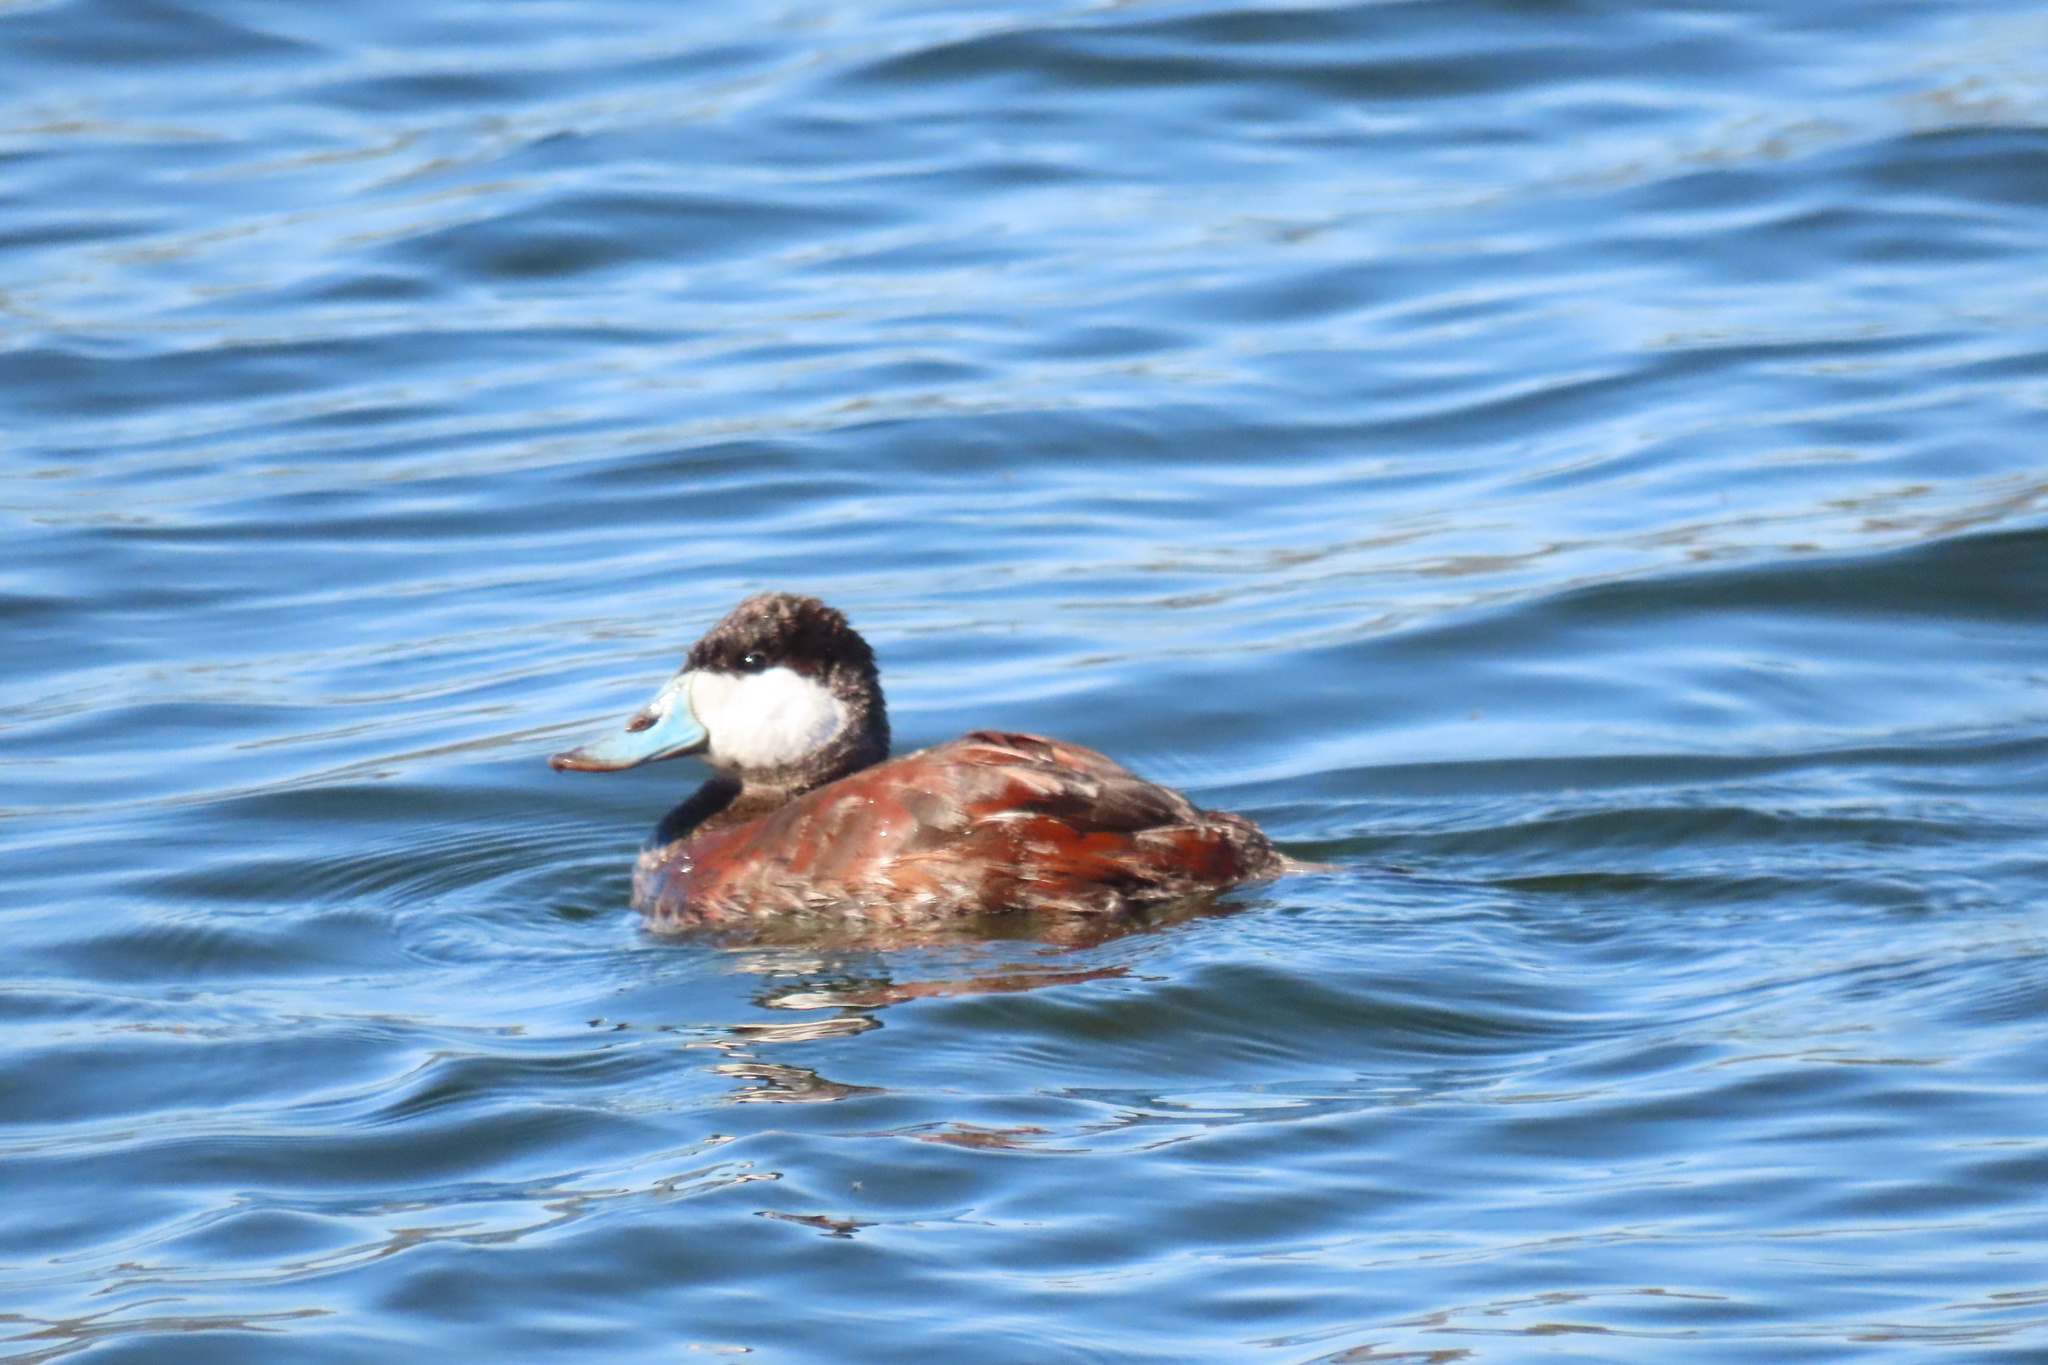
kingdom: Animalia
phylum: Chordata
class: Aves
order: Anseriformes
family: Anatidae
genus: Oxyura
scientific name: Oxyura jamaicensis
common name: Ruddy duck
